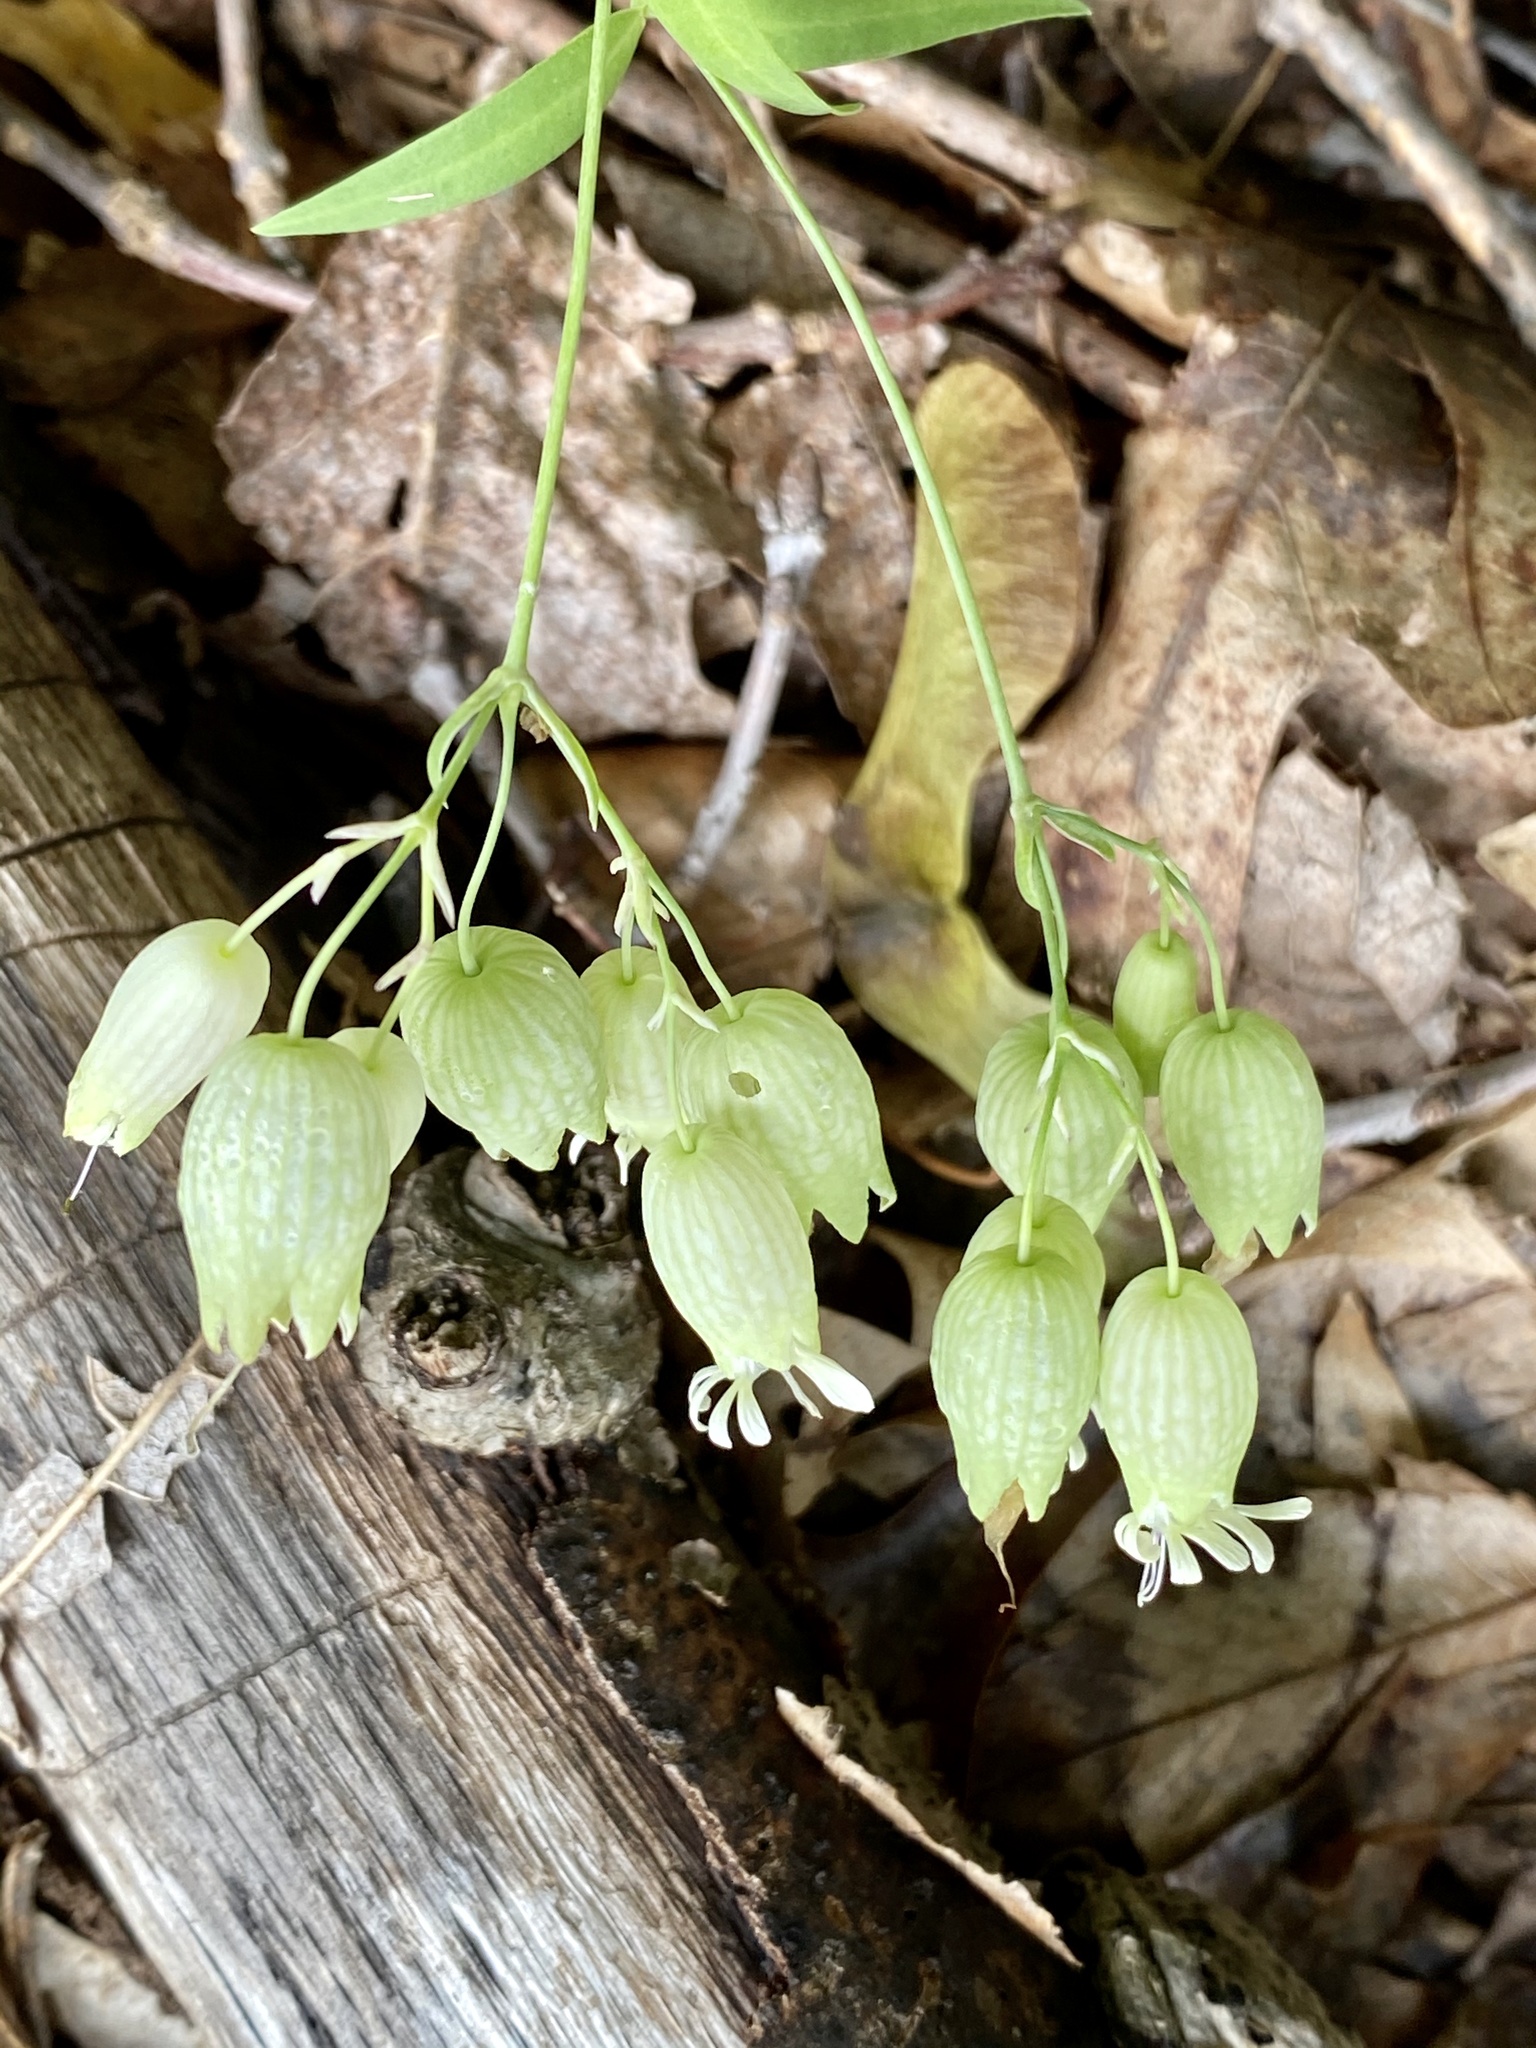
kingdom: Plantae
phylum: Tracheophyta
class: Magnoliopsida
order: Caryophyllales
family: Caryophyllaceae
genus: Silene
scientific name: Silene vulgaris
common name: Bladder campion
